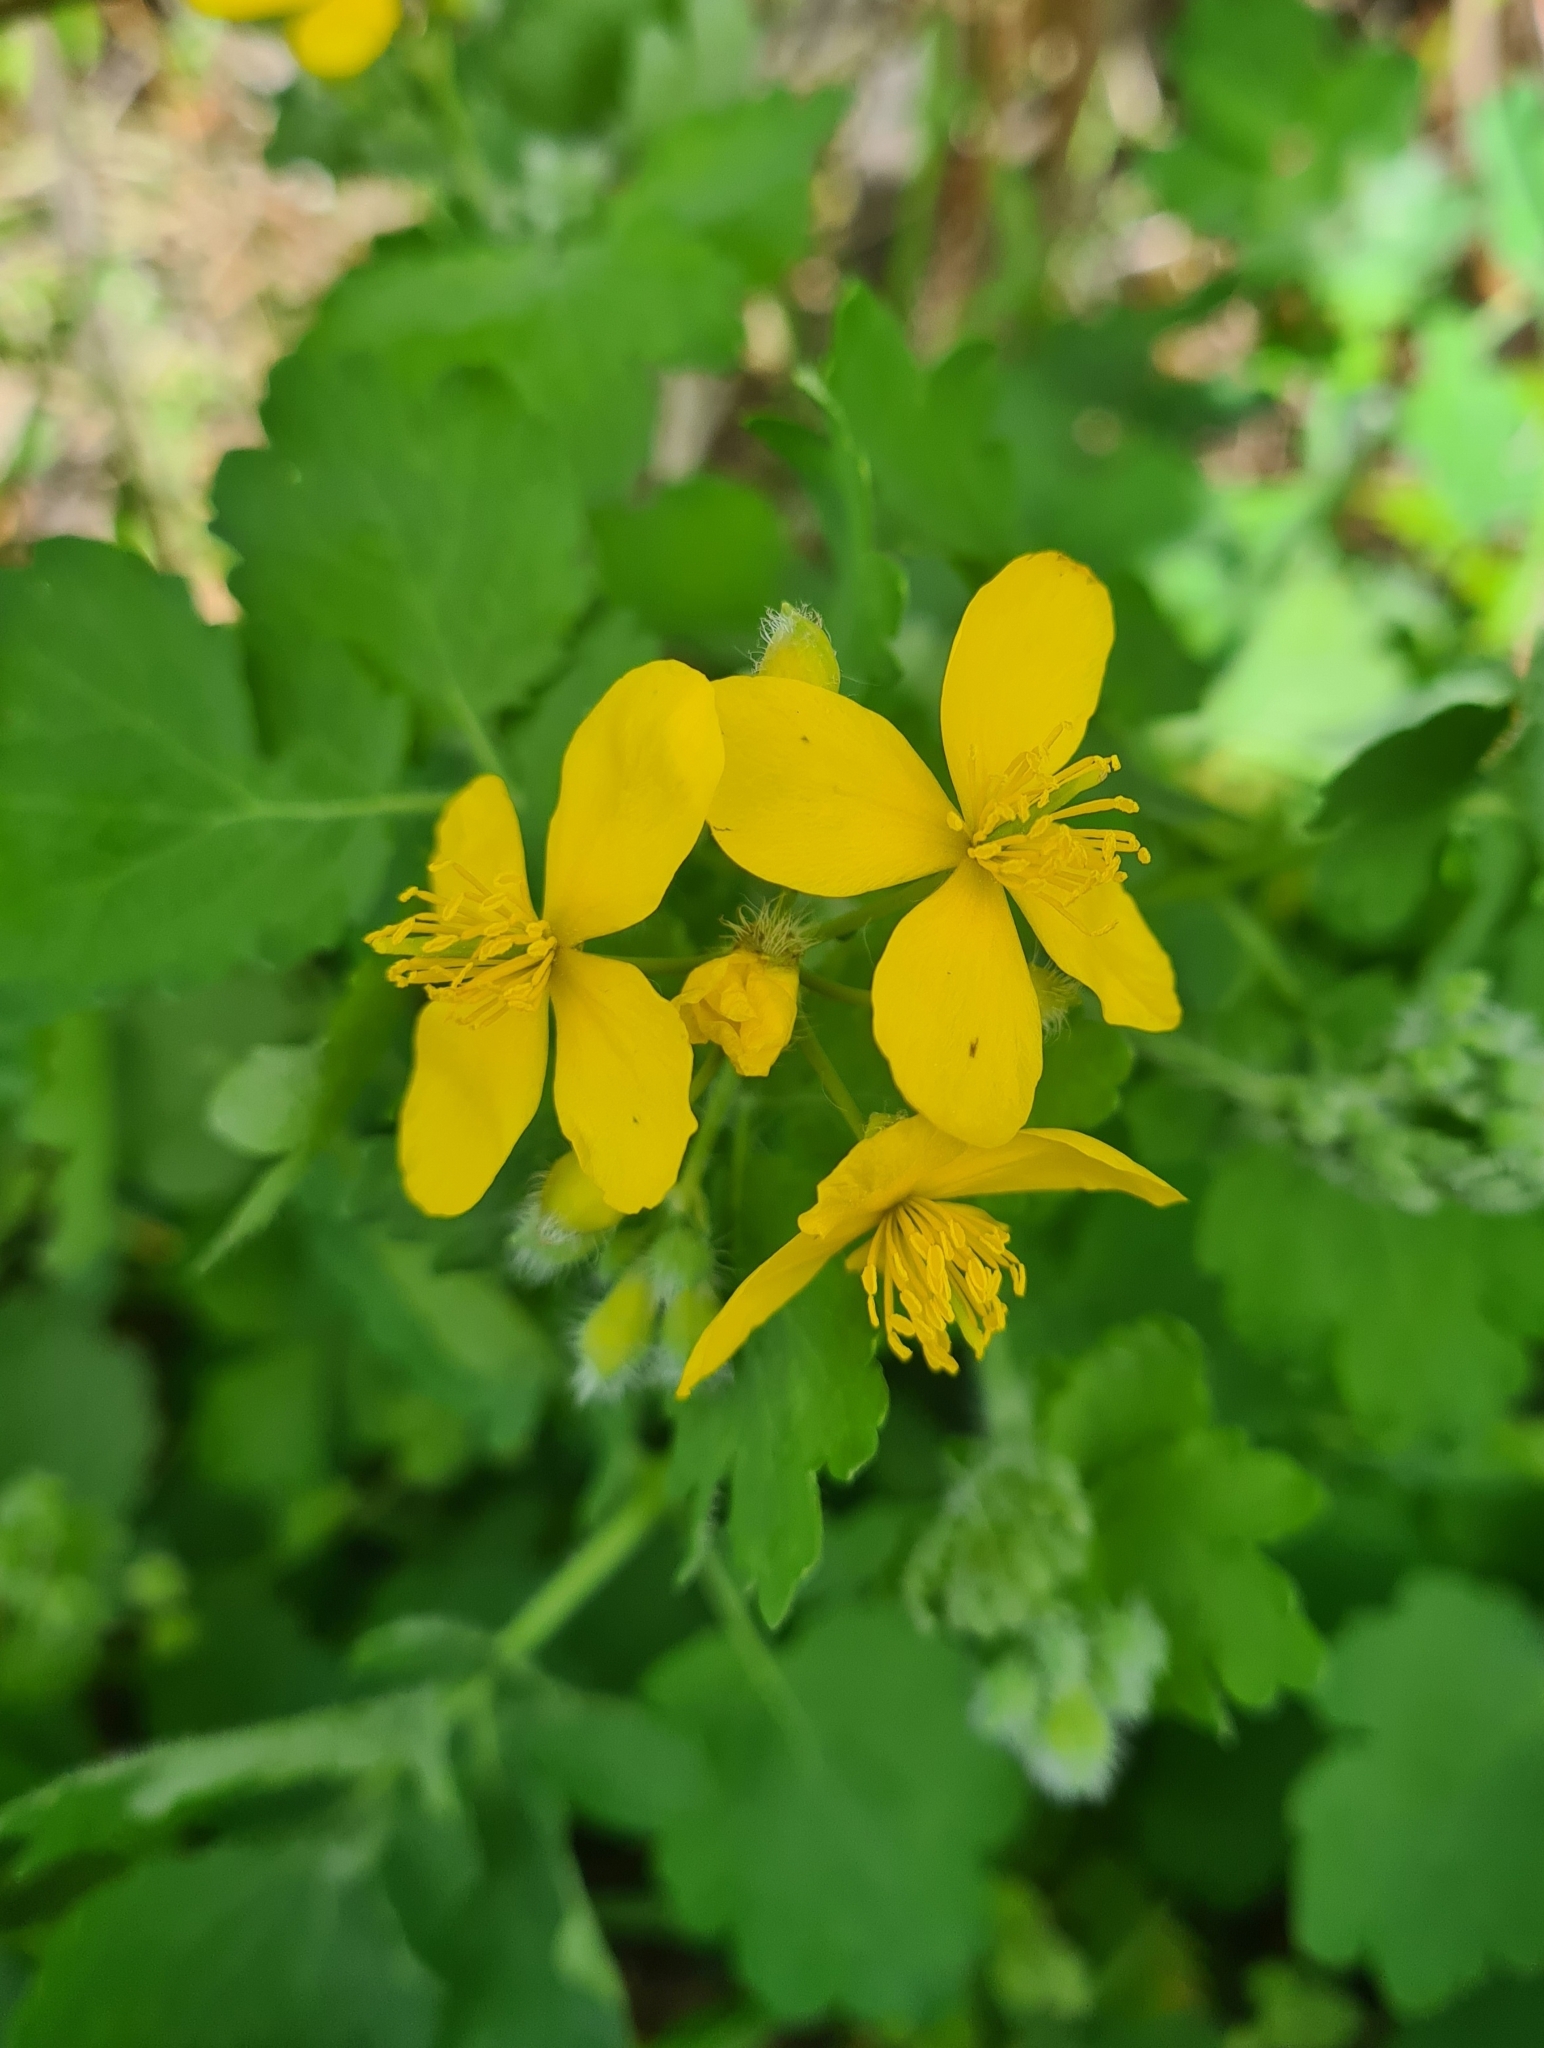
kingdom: Plantae
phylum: Tracheophyta
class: Magnoliopsida
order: Ranunculales
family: Papaveraceae
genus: Chelidonium
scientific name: Chelidonium majus
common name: Greater celandine
